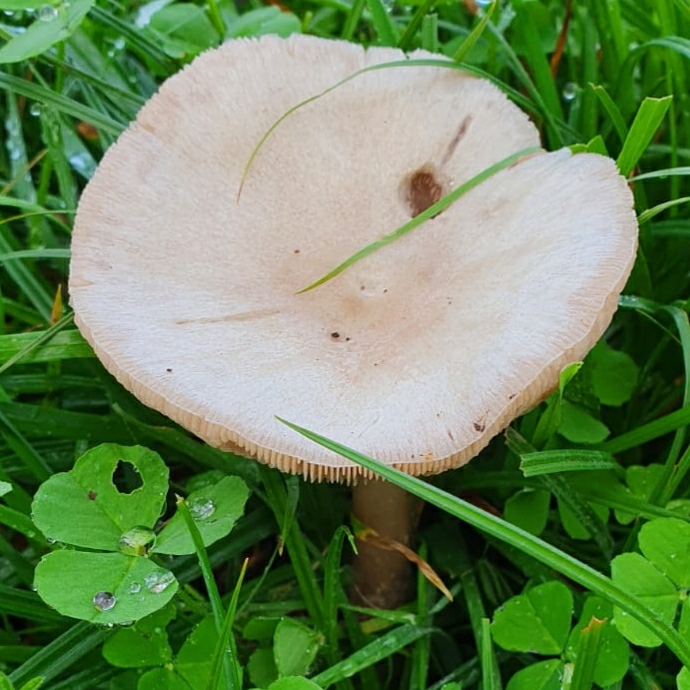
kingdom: Fungi
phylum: Basidiomycota
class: Agaricomycetes
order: Agaricales
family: Pluteaceae
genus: Volvopluteus
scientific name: Volvopluteus gloiocephalus
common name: Stubble rosegill
